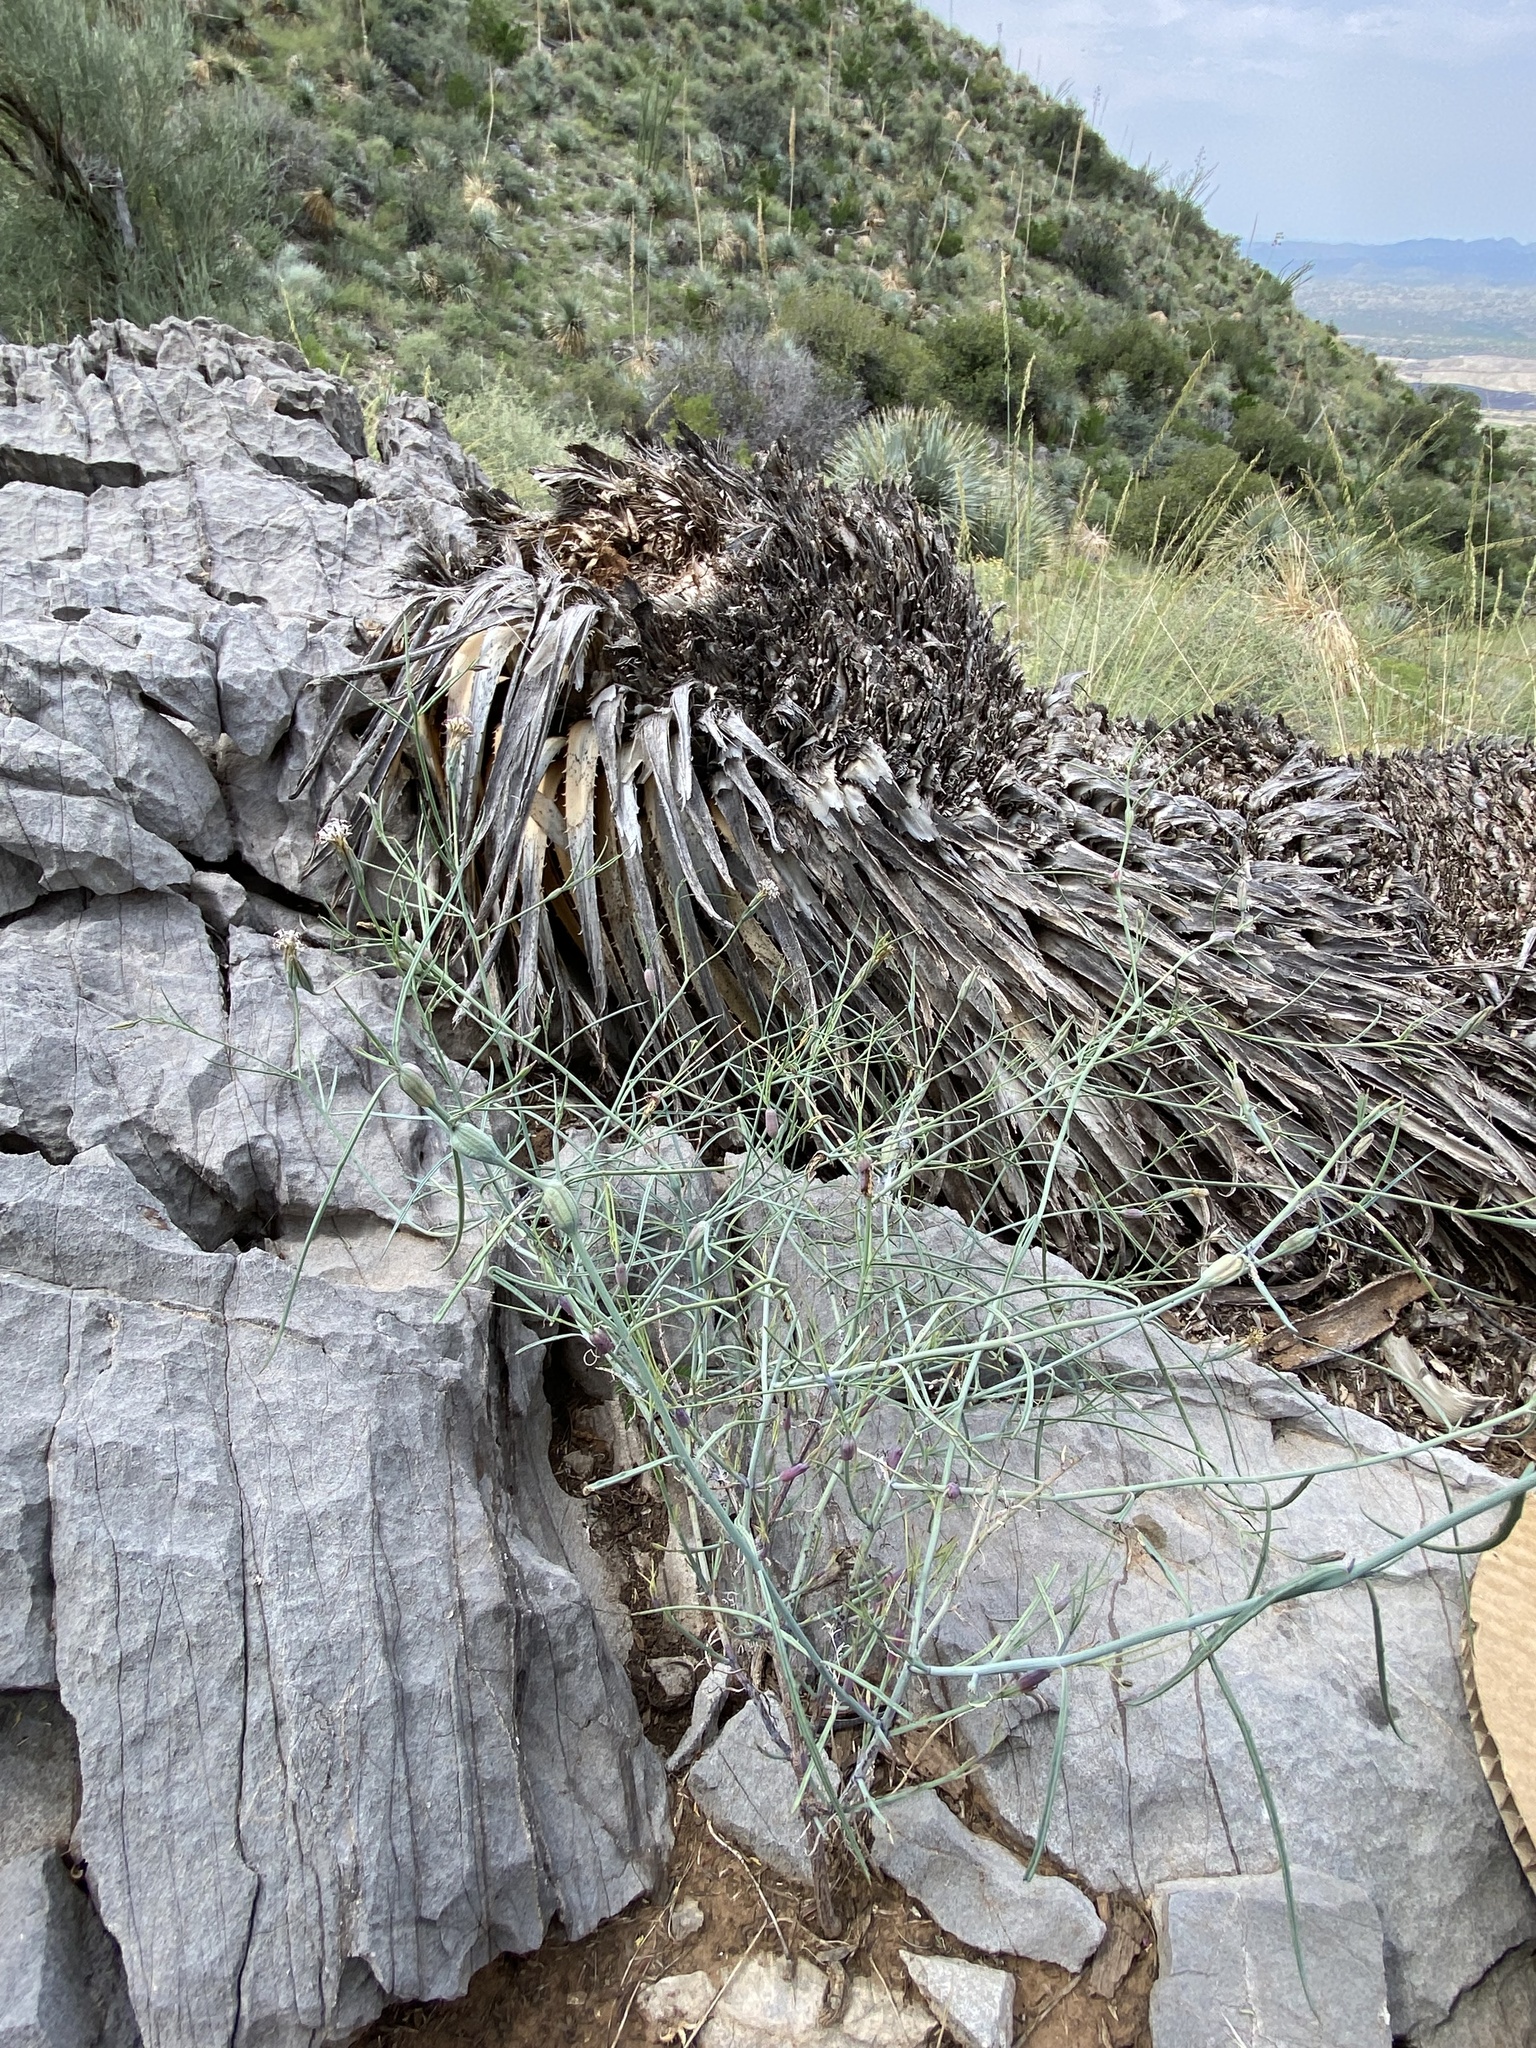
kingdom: Plantae
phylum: Tracheophyta
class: Magnoliopsida
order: Asterales
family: Asteraceae
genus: Porophyllum
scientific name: Porophyllum gracile
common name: Odora
